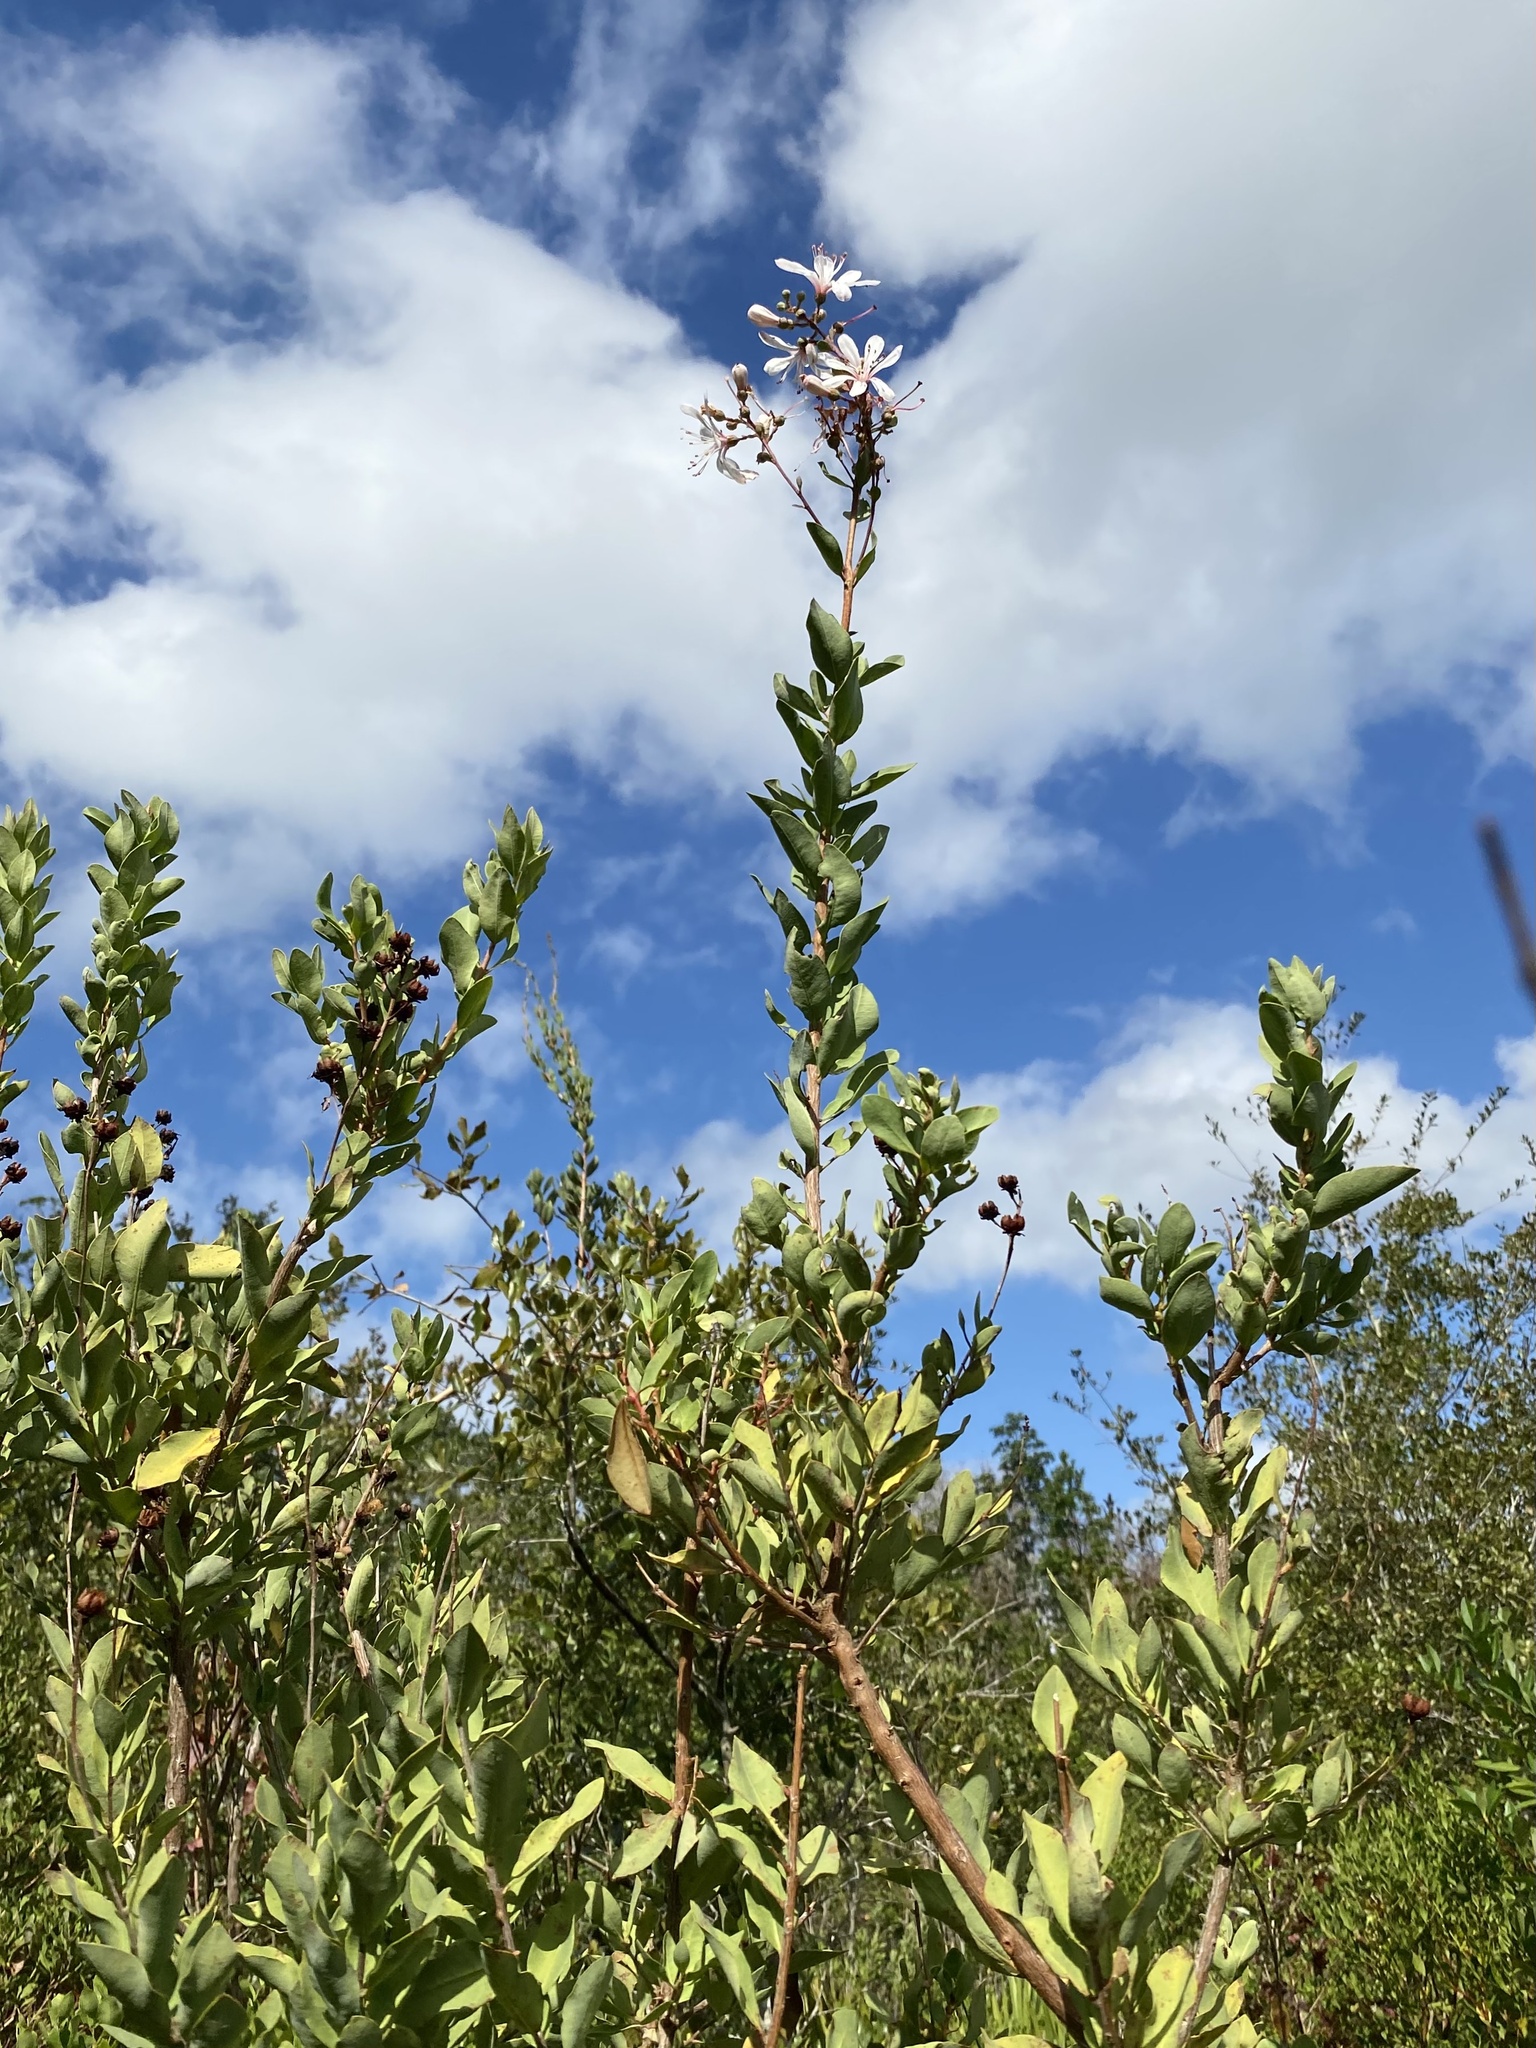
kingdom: Plantae
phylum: Tracheophyta
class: Magnoliopsida
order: Ericales
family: Ericaceae
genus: Bejaria
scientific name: Bejaria racemosa
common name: Tarflower
